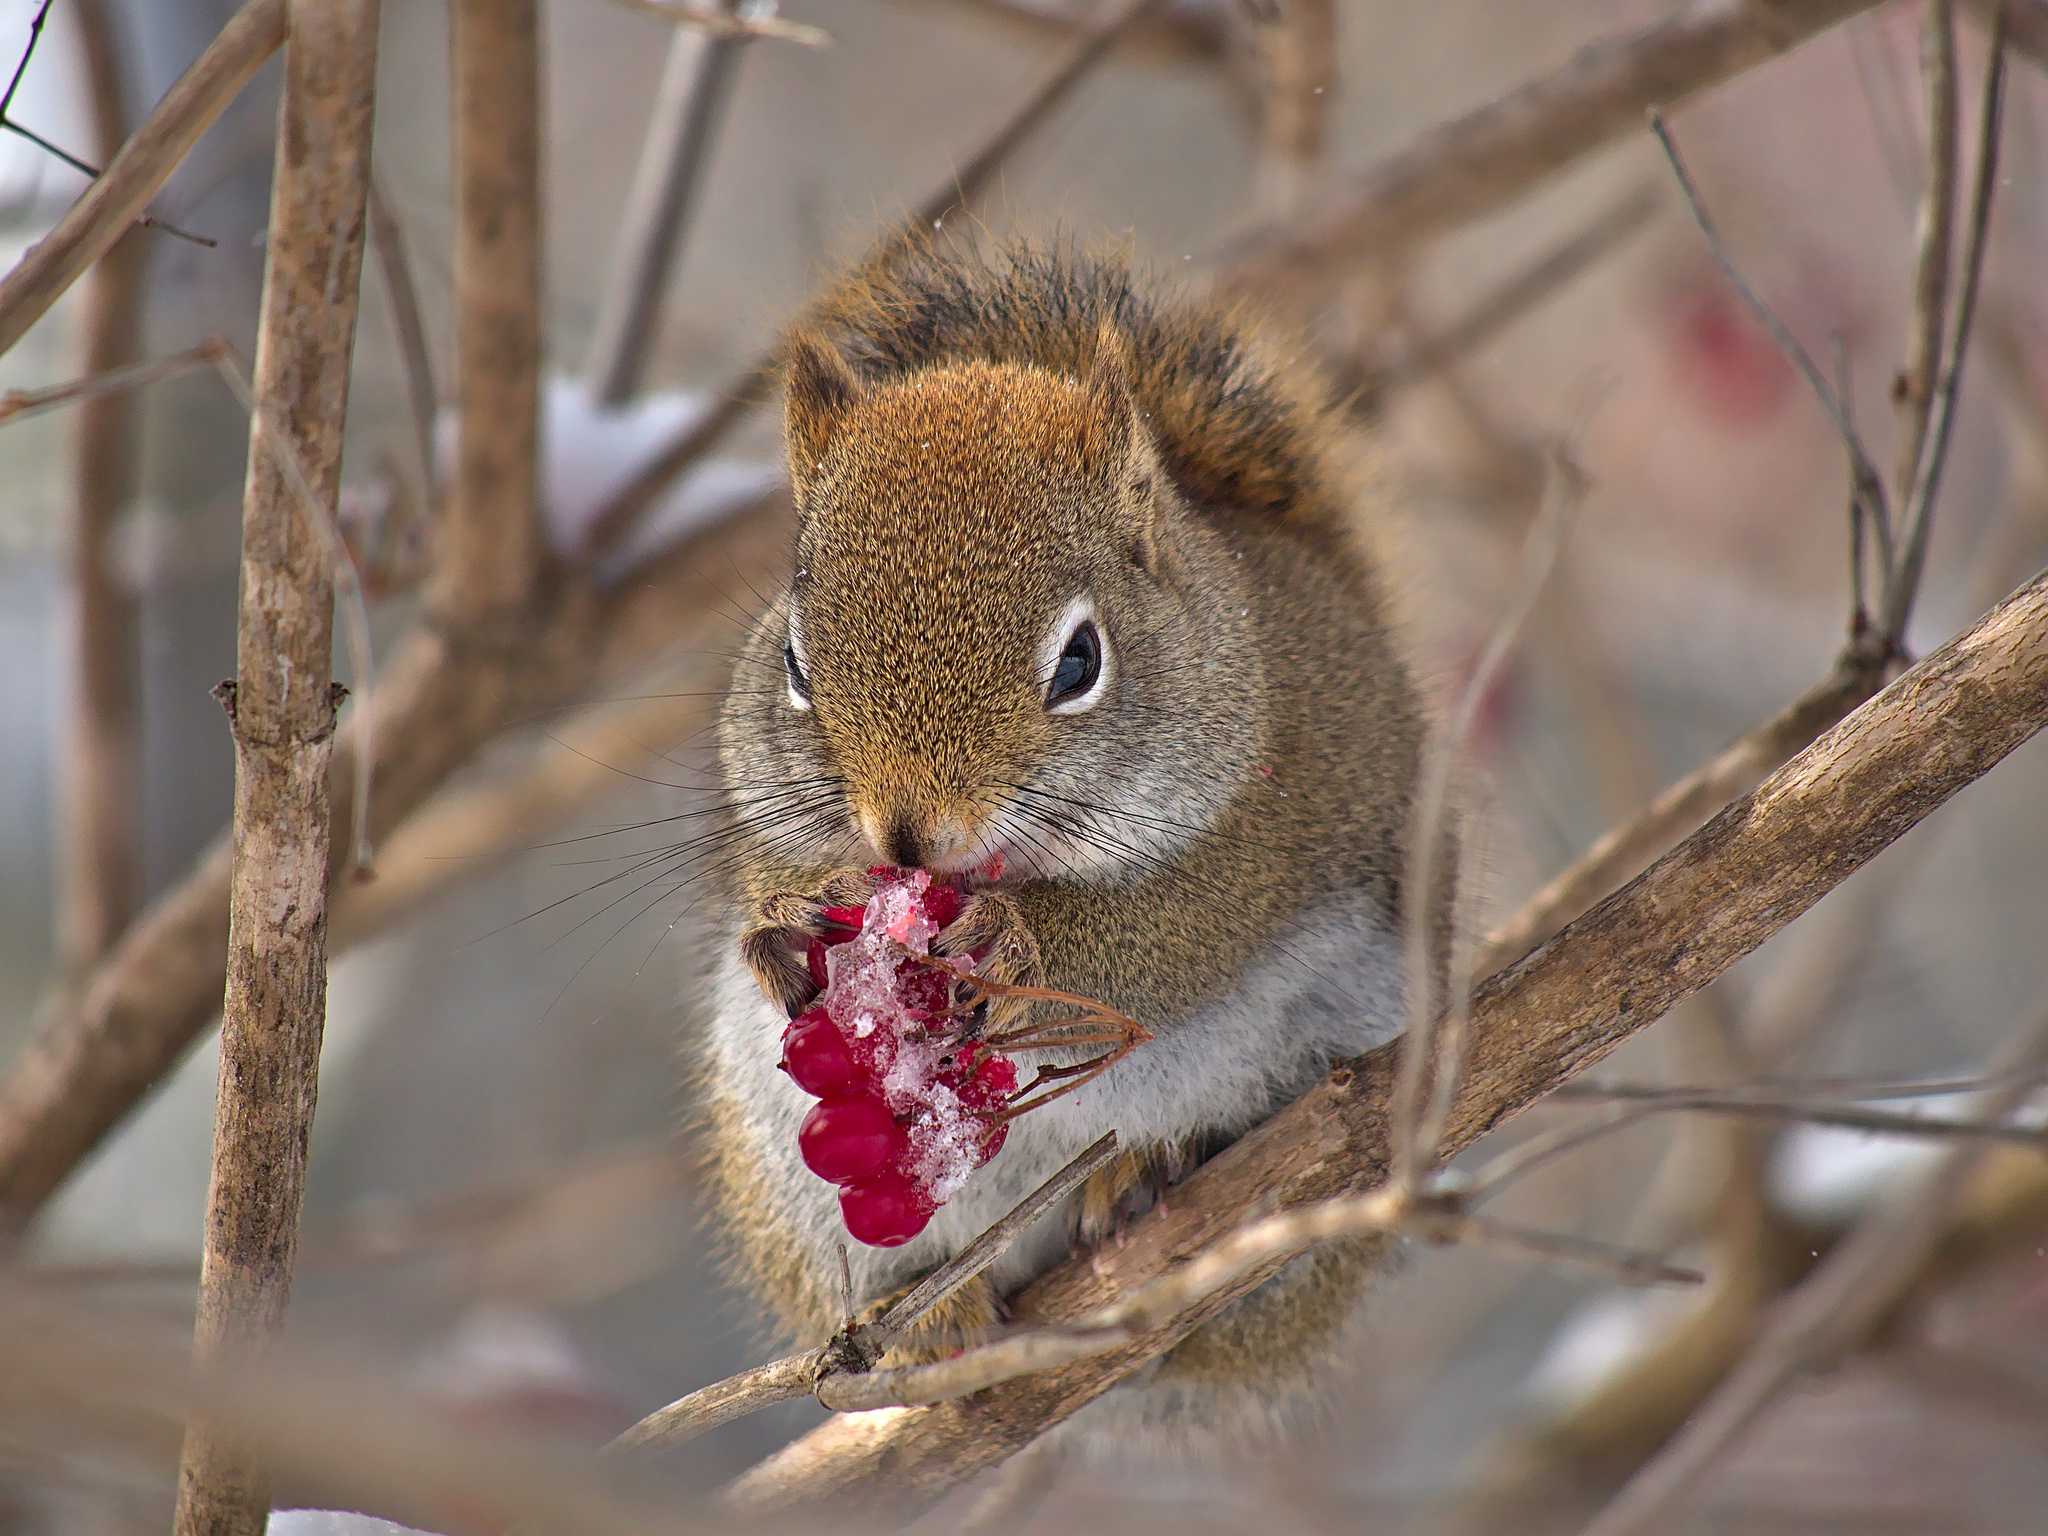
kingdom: Animalia
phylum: Chordata
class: Mammalia
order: Rodentia
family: Sciuridae
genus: Tamiasciurus
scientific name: Tamiasciurus hudsonicus
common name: Red squirrel
